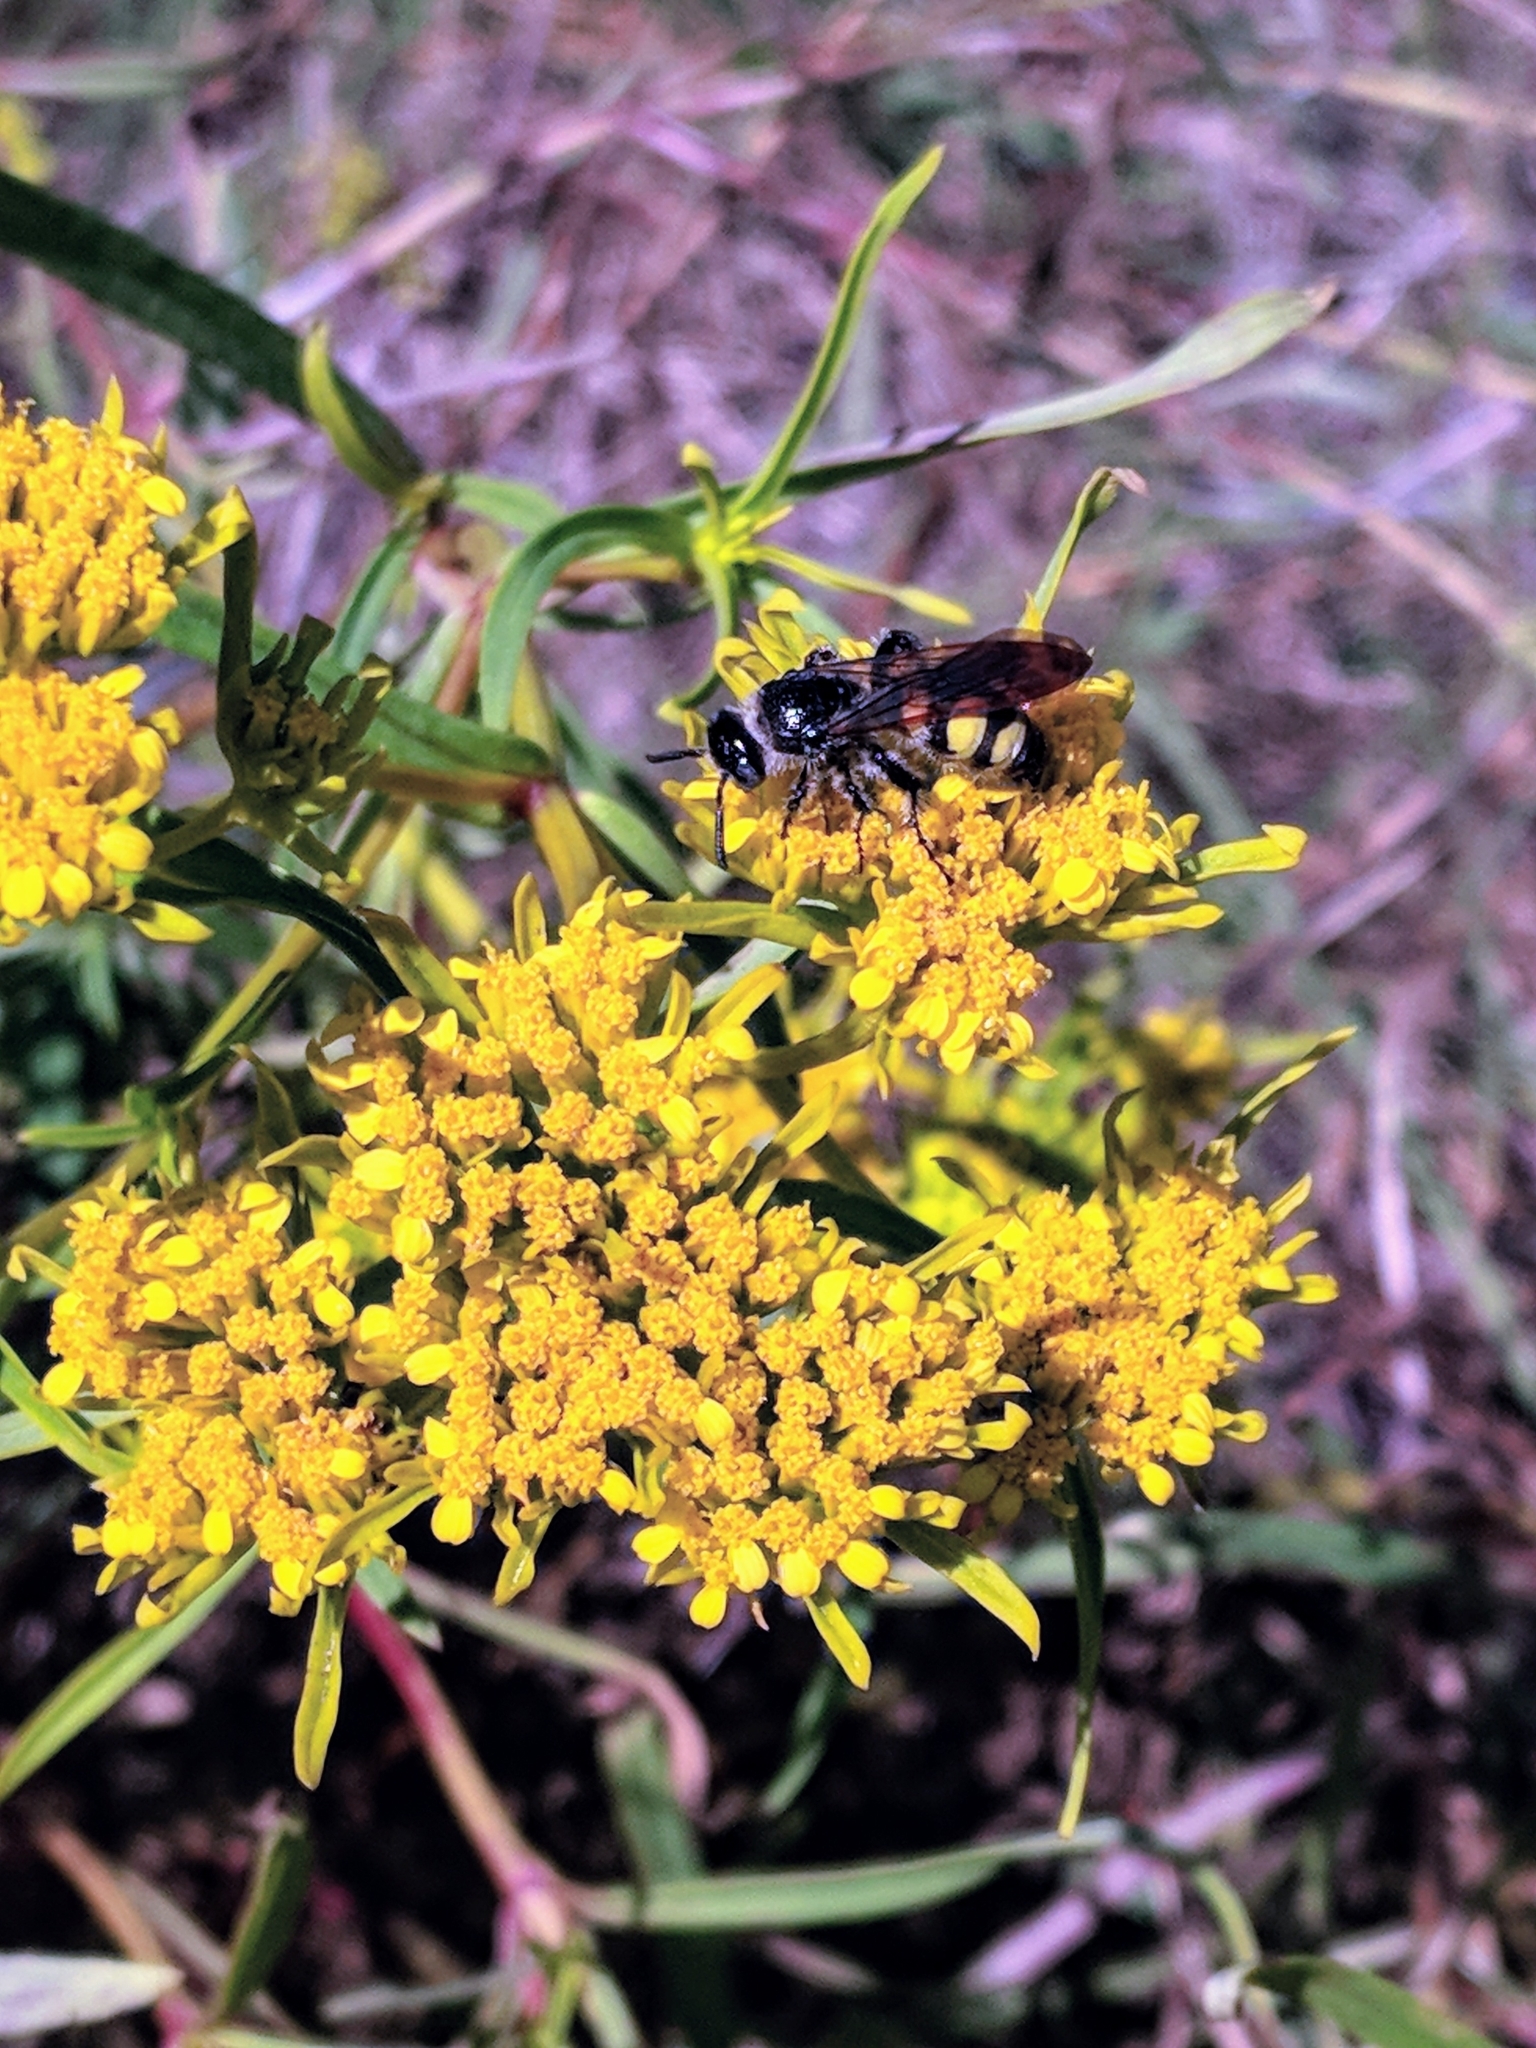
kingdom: Animalia
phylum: Arthropoda
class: Insecta
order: Hymenoptera
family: Scoliidae
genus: Dielis
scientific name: Dielis
